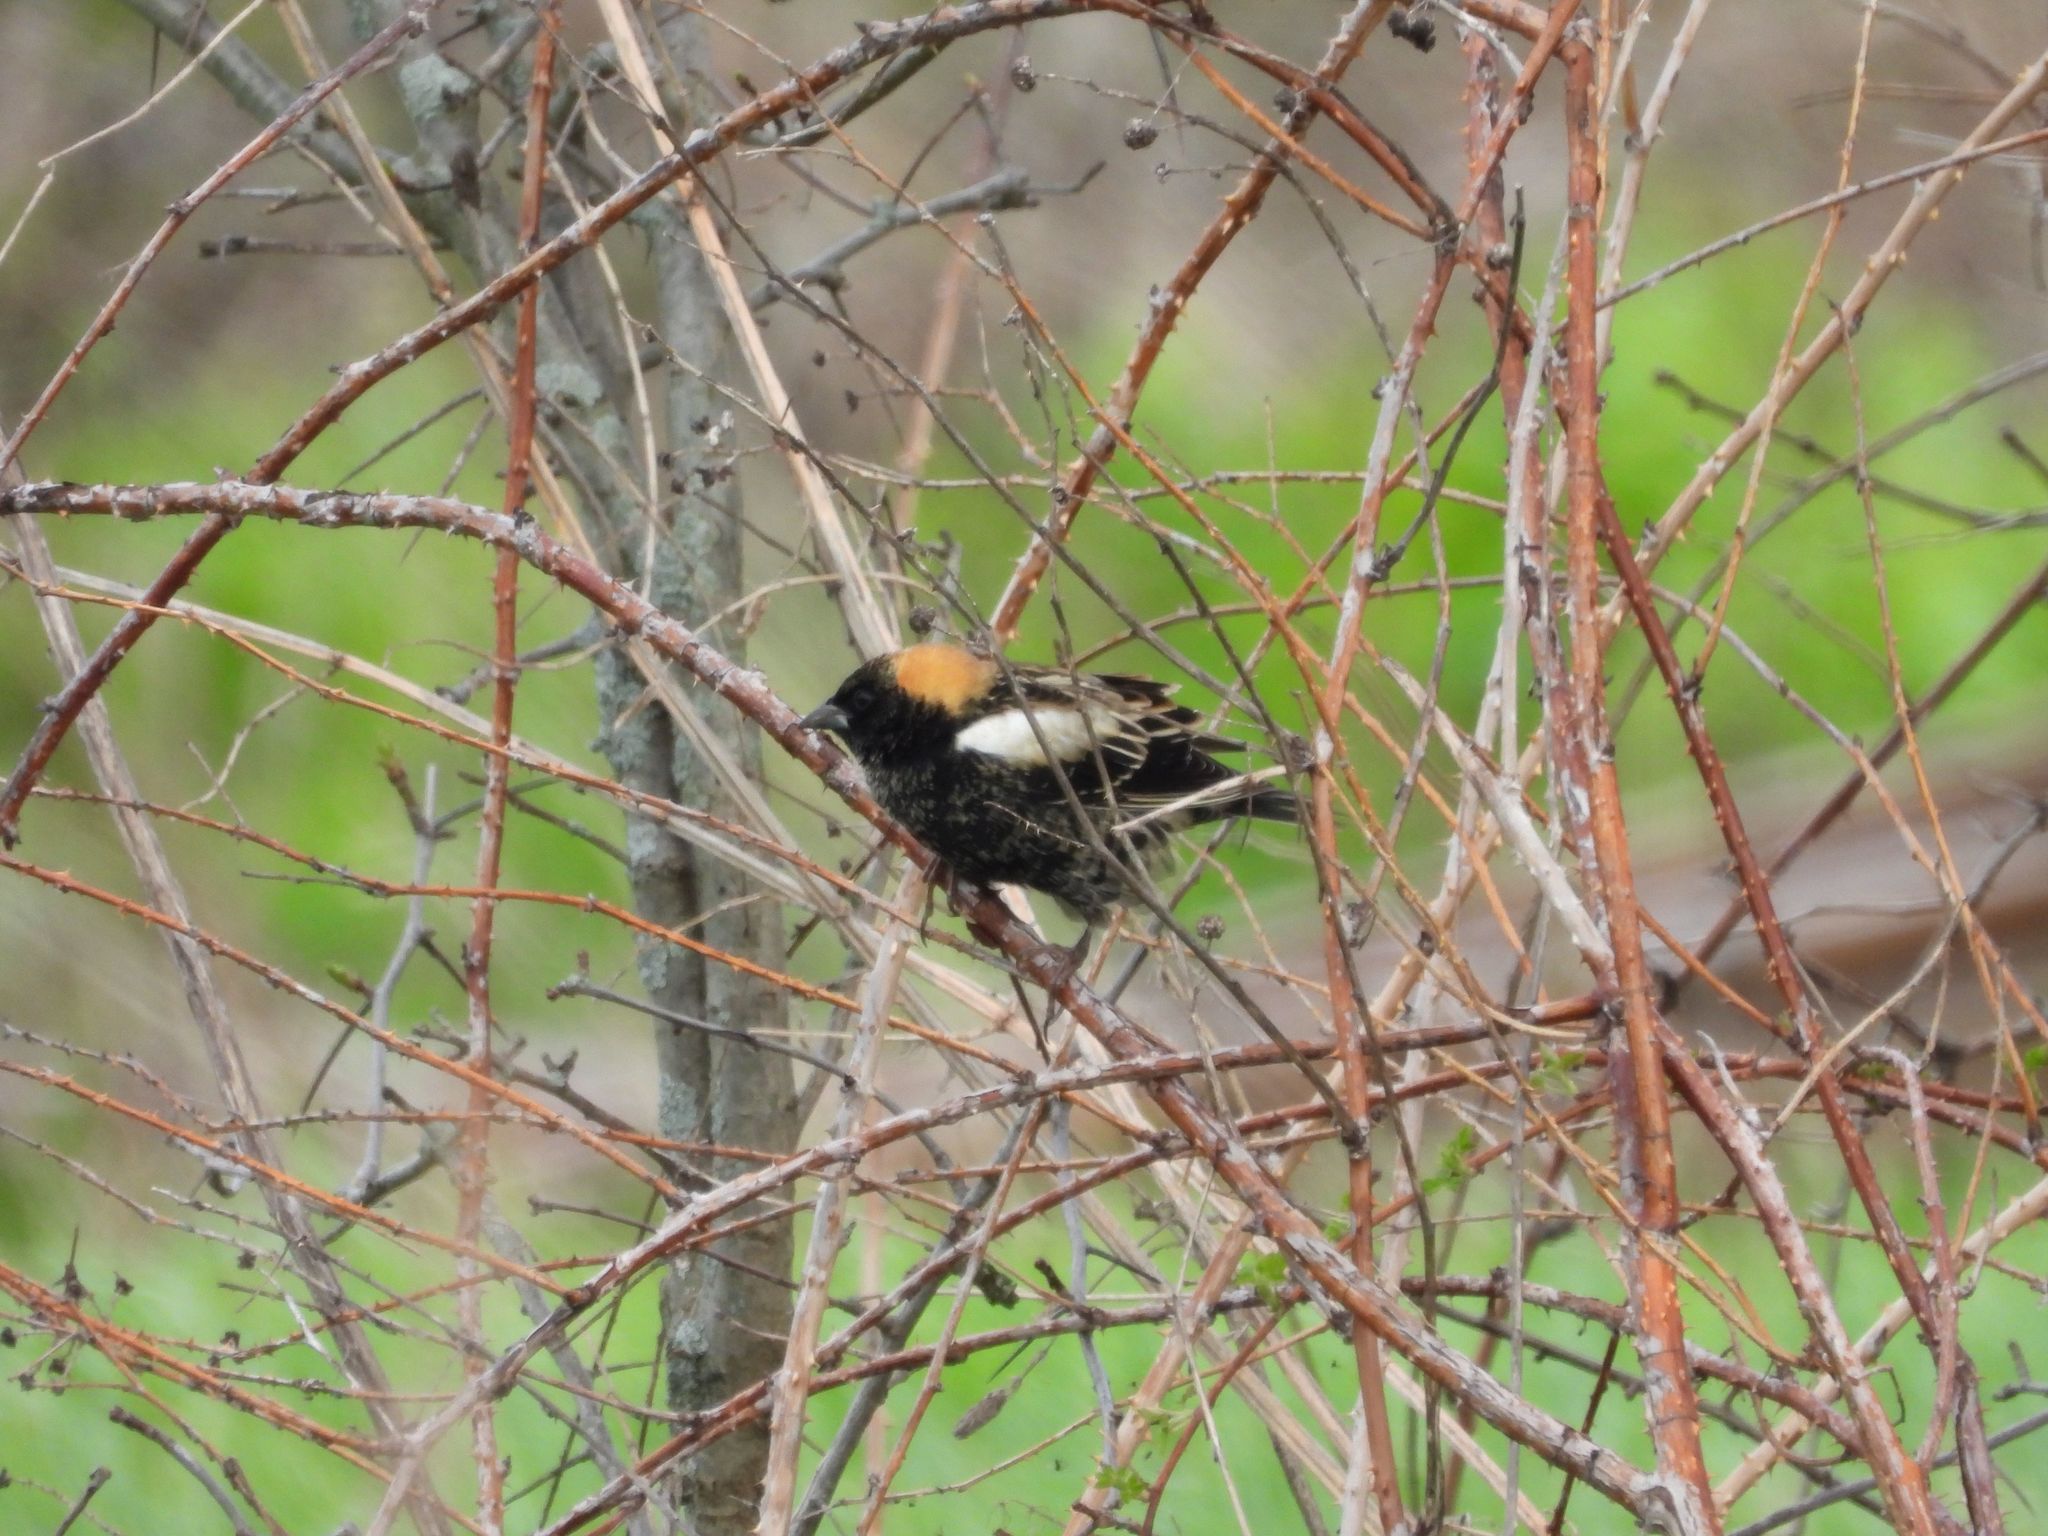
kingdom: Animalia
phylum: Chordata
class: Aves
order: Passeriformes
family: Icteridae
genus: Dolichonyx
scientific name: Dolichonyx oryzivorus
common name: Bobolink
